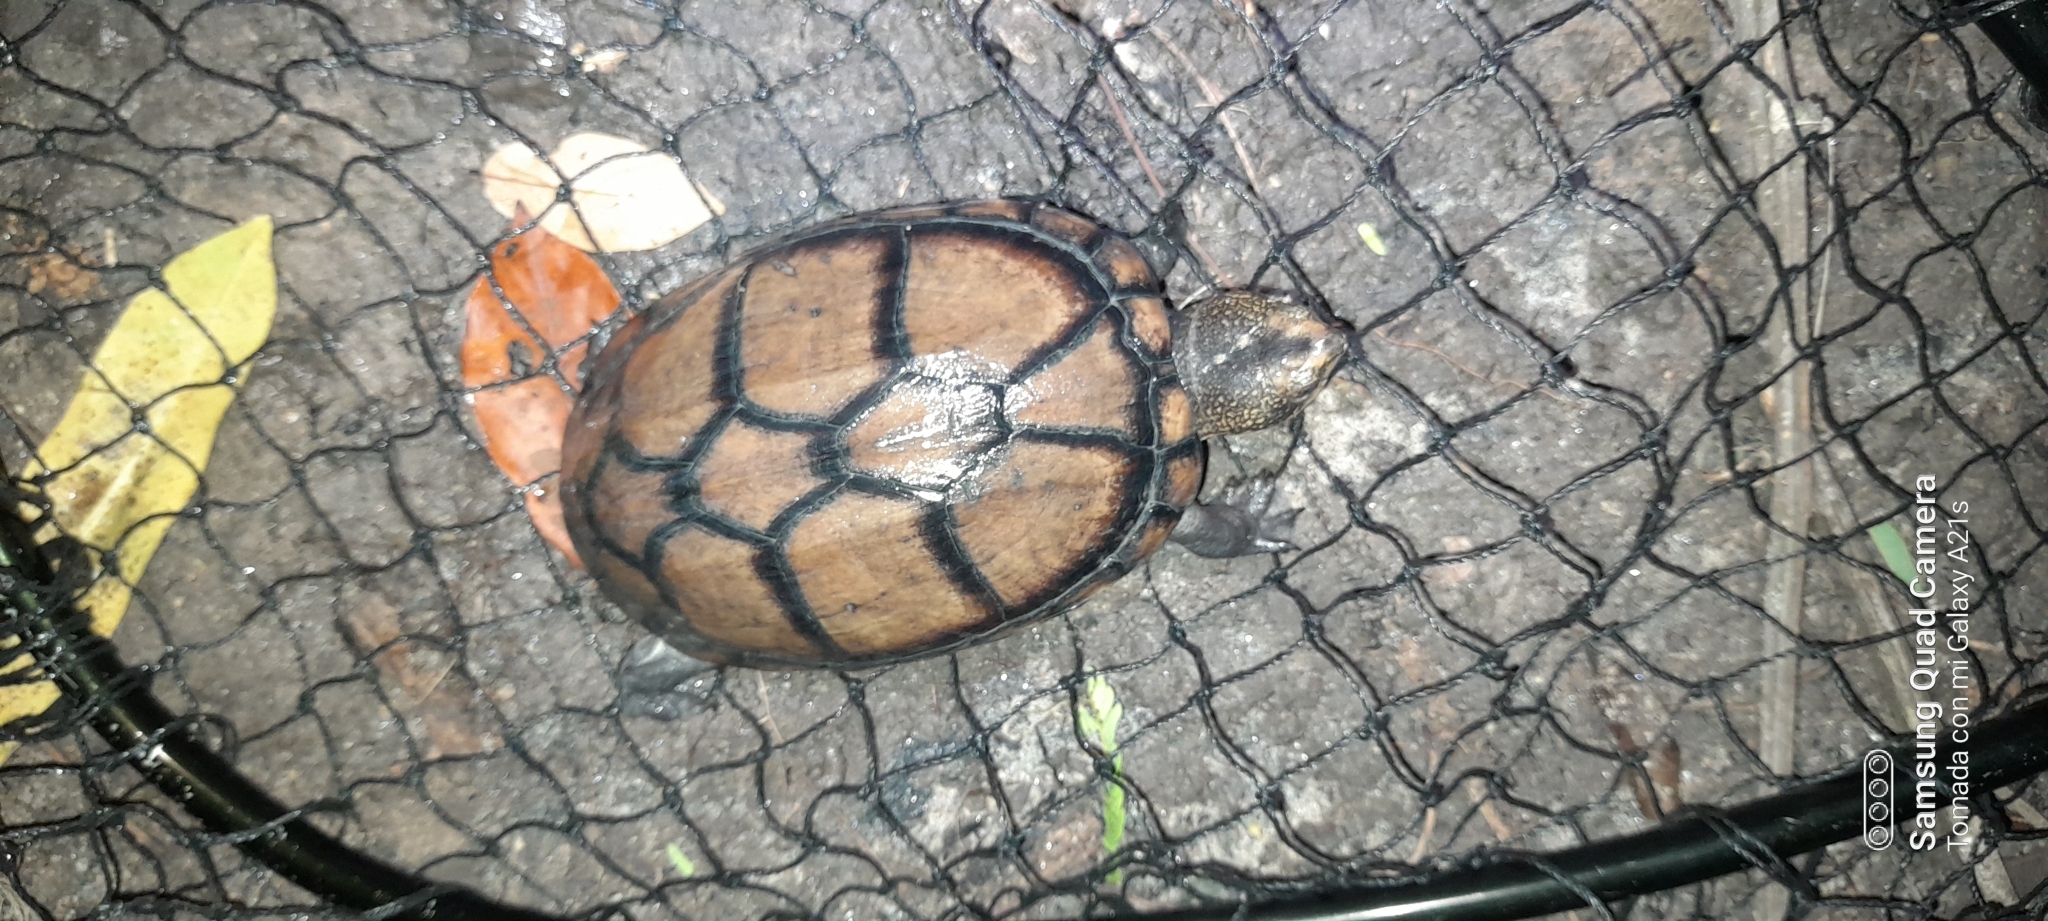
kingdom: Animalia
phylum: Chordata
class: Testudines
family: Kinosternidae
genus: Kinosternon
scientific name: Kinosternon scorpioides
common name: Scorpion mud turtle
